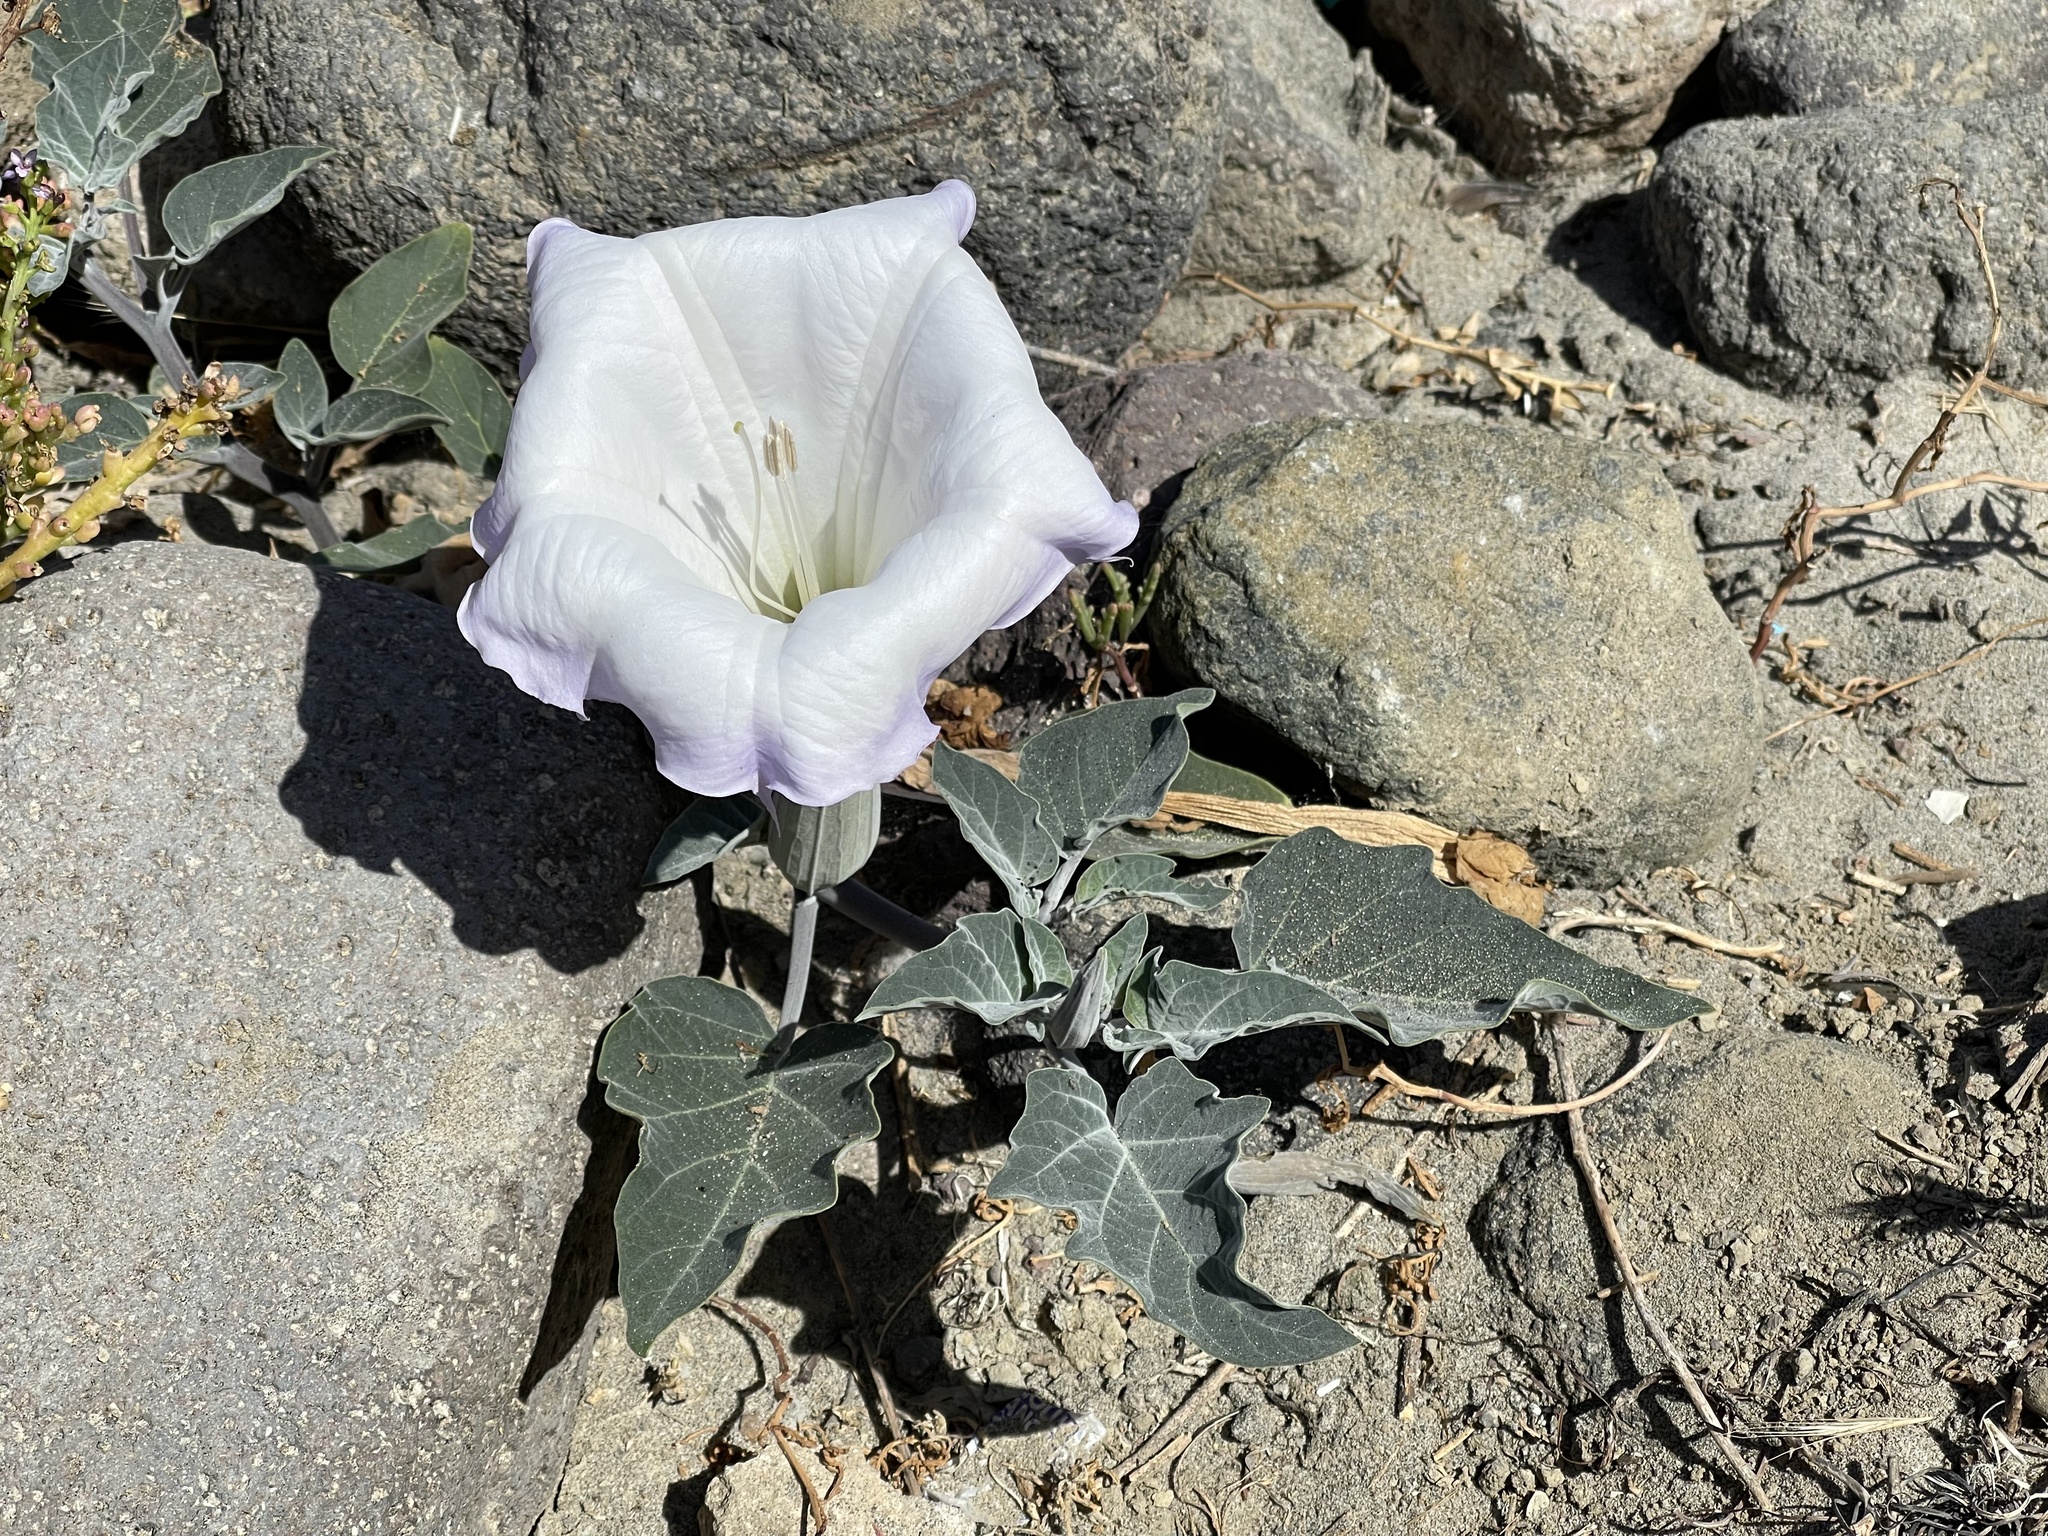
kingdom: Plantae
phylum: Tracheophyta
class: Magnoliopsida
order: Solanales
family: Solanaceae
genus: Datura
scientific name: Datura wrightii
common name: Sacred thorn-apple
